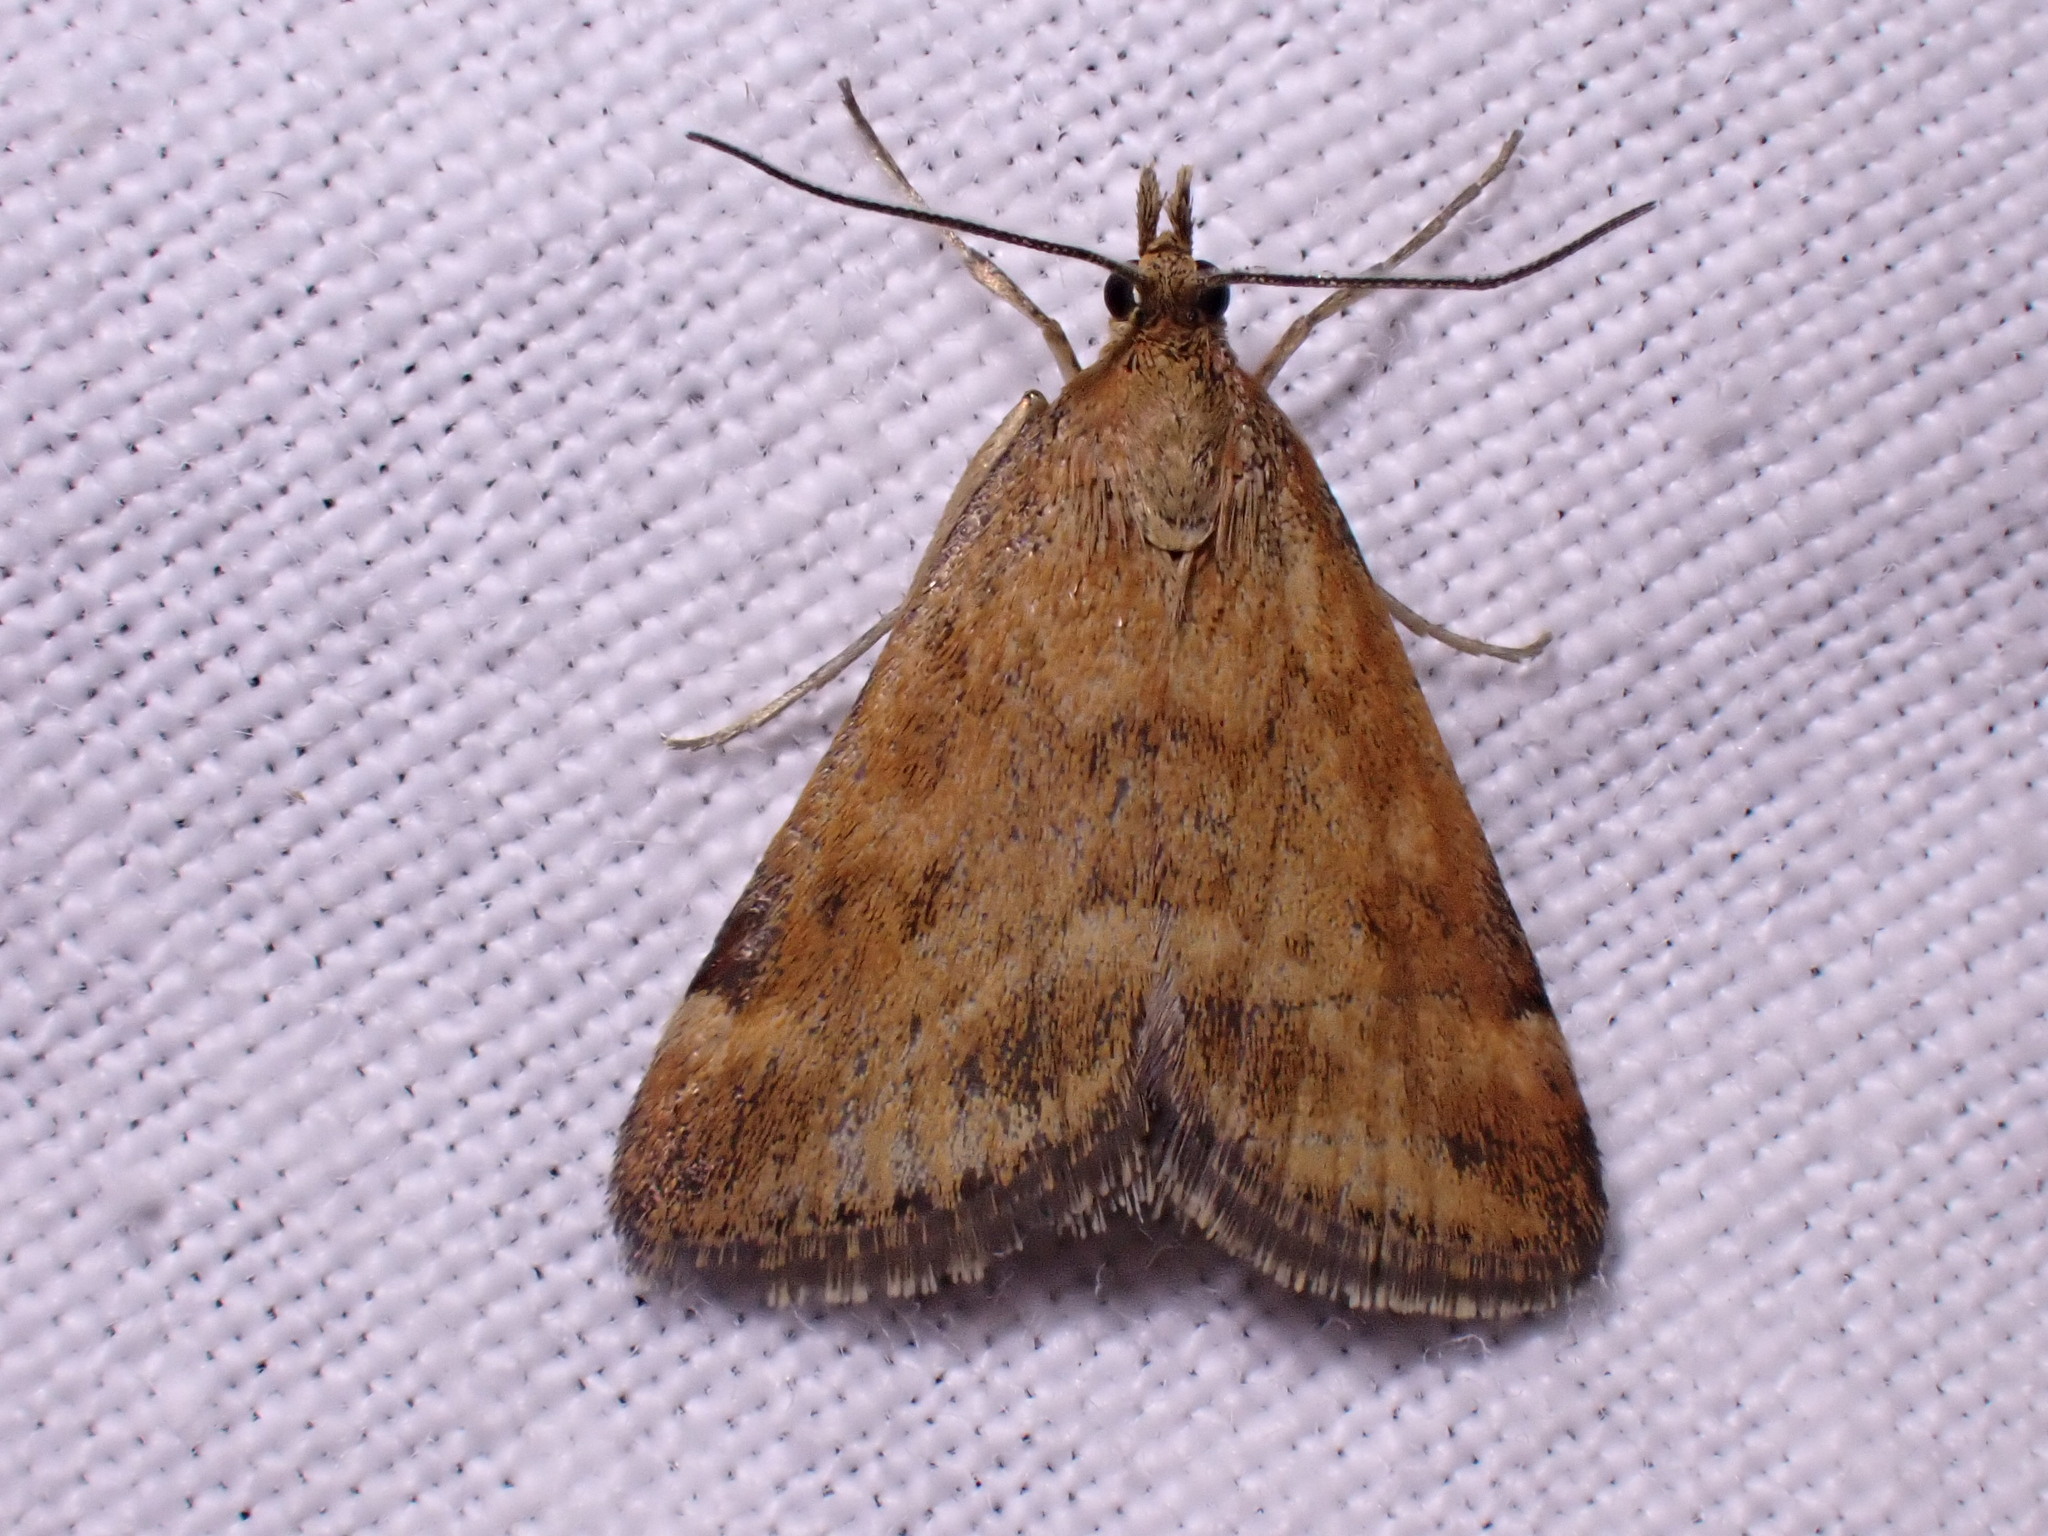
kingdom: Animalia
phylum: Arthropoda
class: Insecta
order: Lepidoptera
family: Crambidae
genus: Pyrausta
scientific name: Pyrausta despicata
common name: Straw-barred pearl
